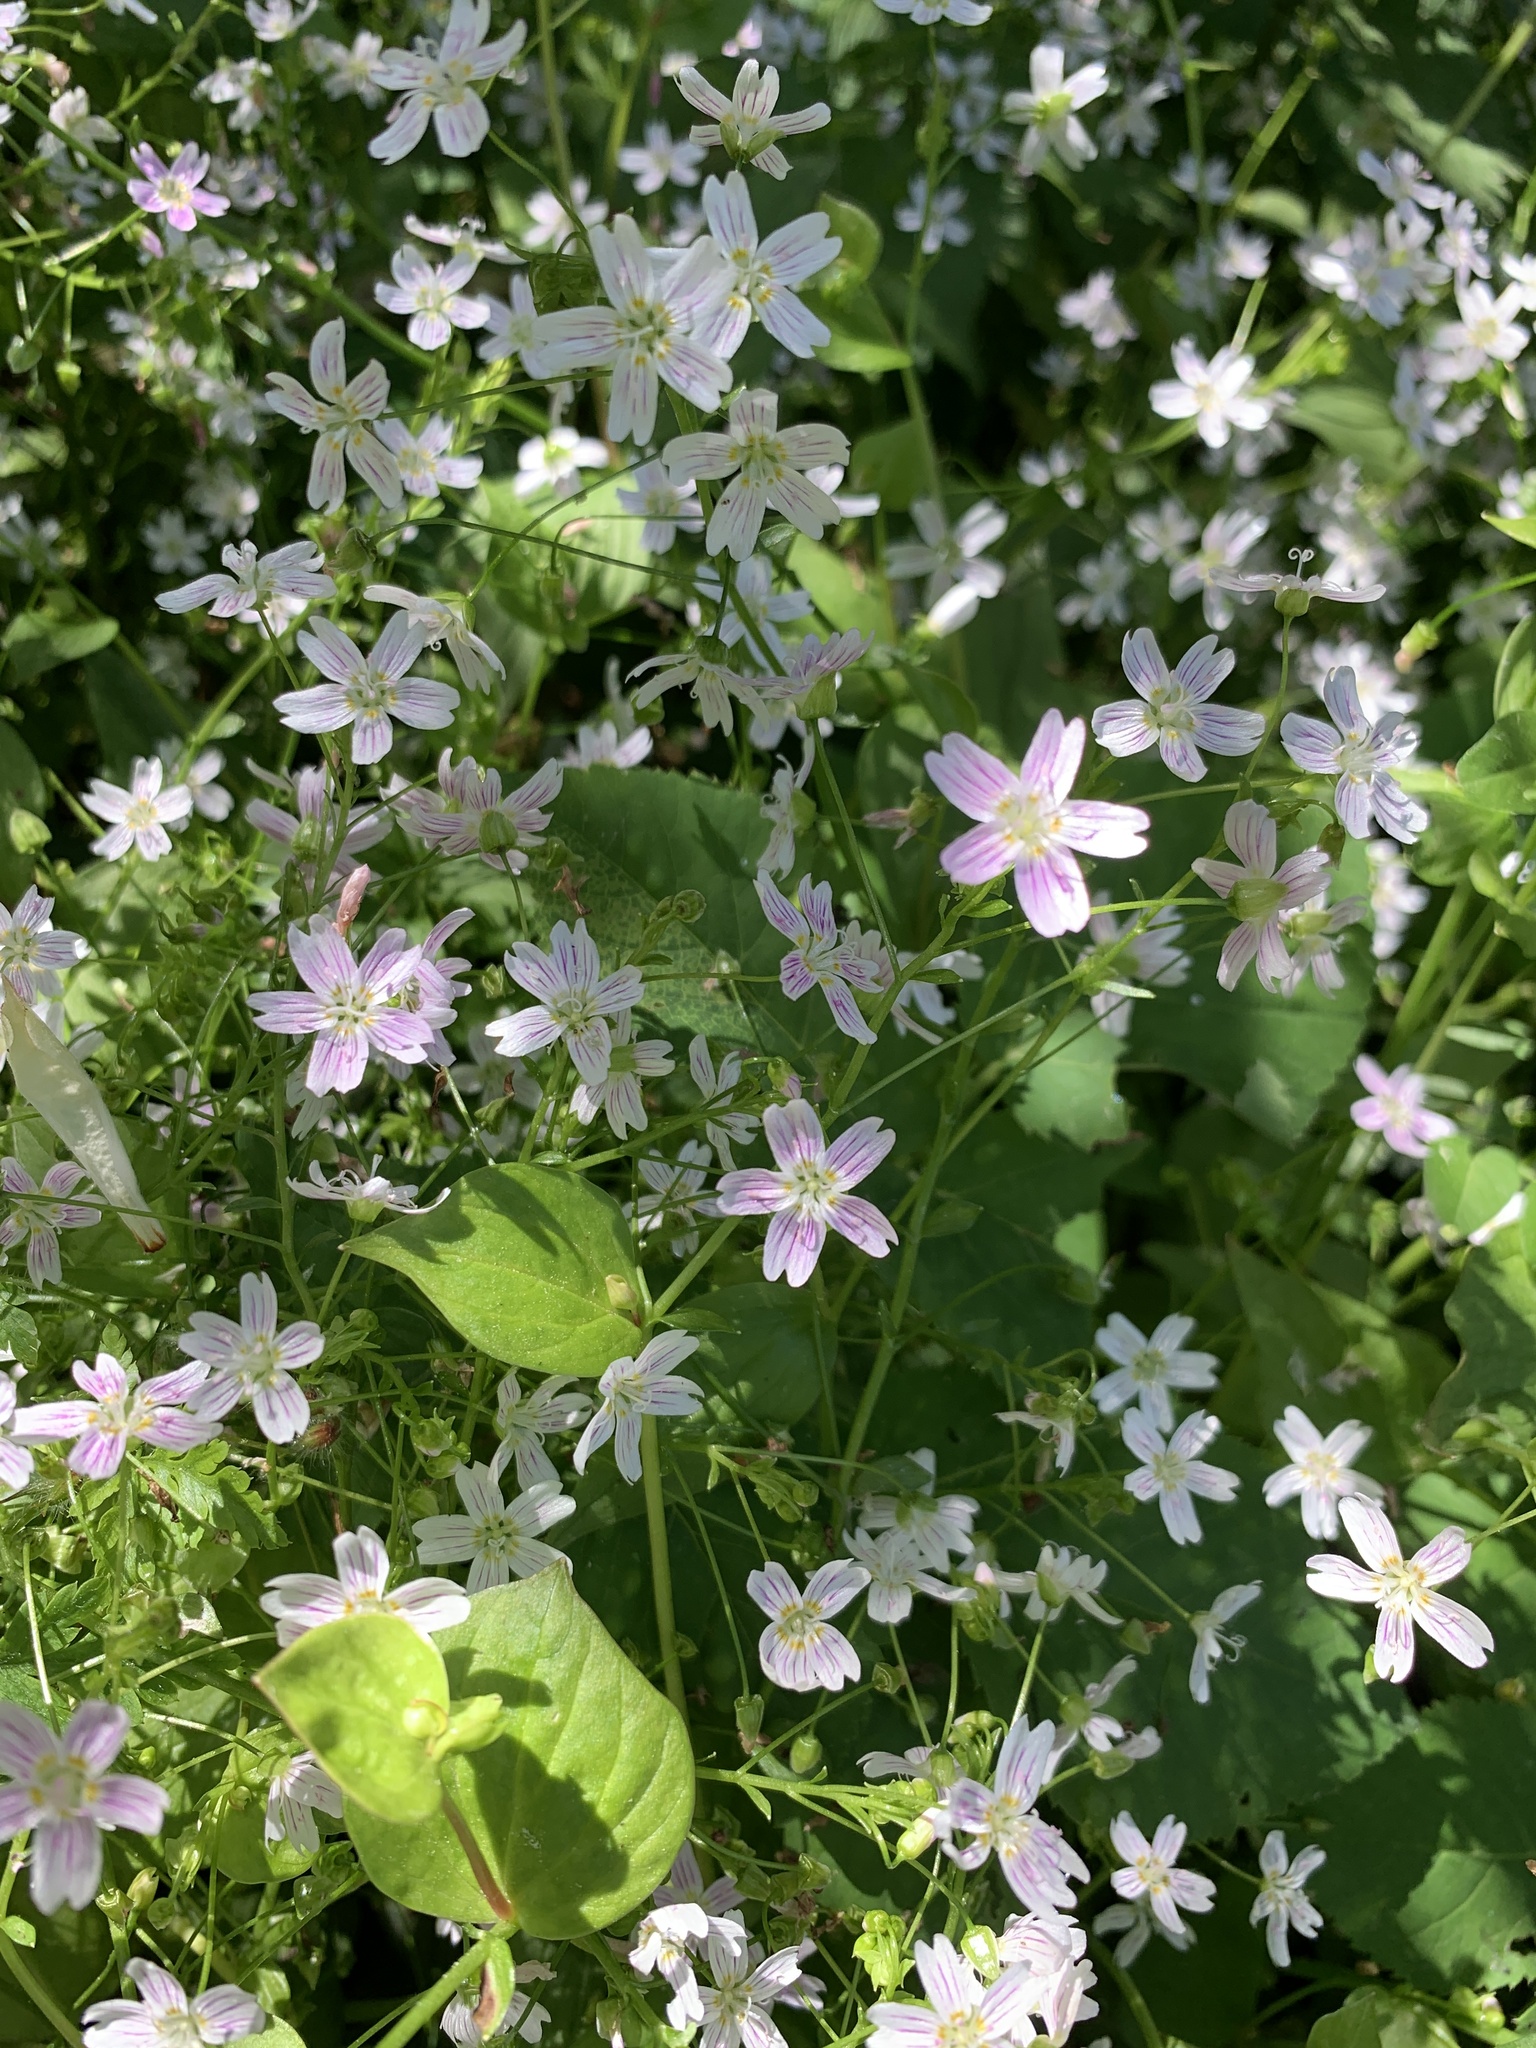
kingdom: Plantae
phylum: Tracheophyta
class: Magnoliopsida
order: Caryophyllales
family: Montiaceae
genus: Claytonia
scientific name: Claytonia sibirica
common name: Pink purslane
